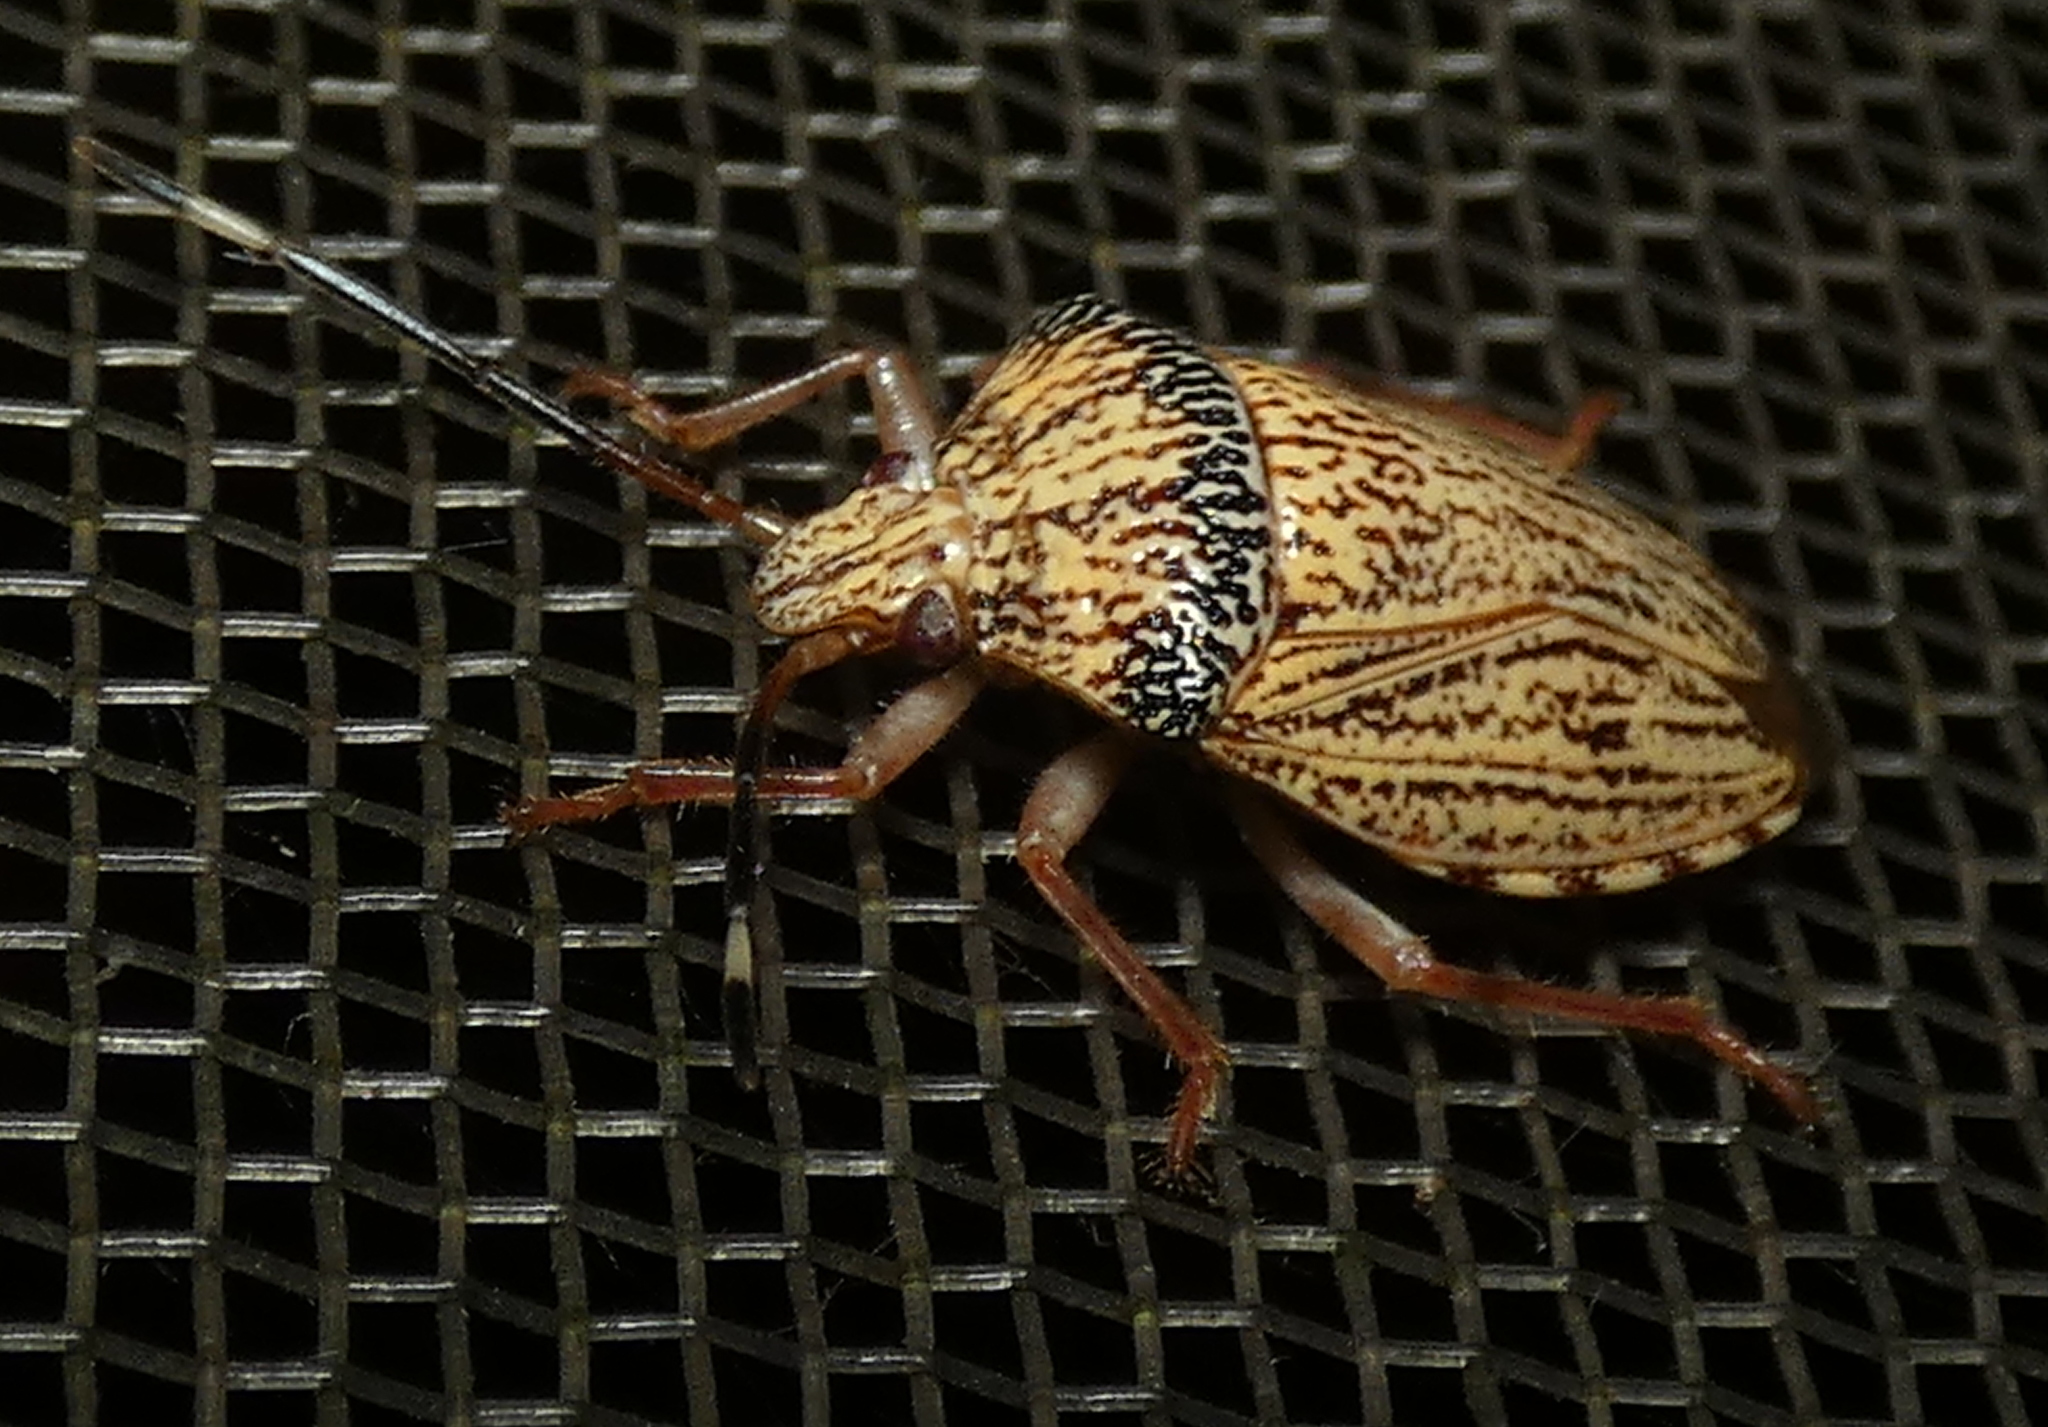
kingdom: Animalia
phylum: Arthropoda
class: Insecta
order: Hemiptera
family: Pentatomidae
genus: Antiteuchus
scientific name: Antiteuchus macraspis
